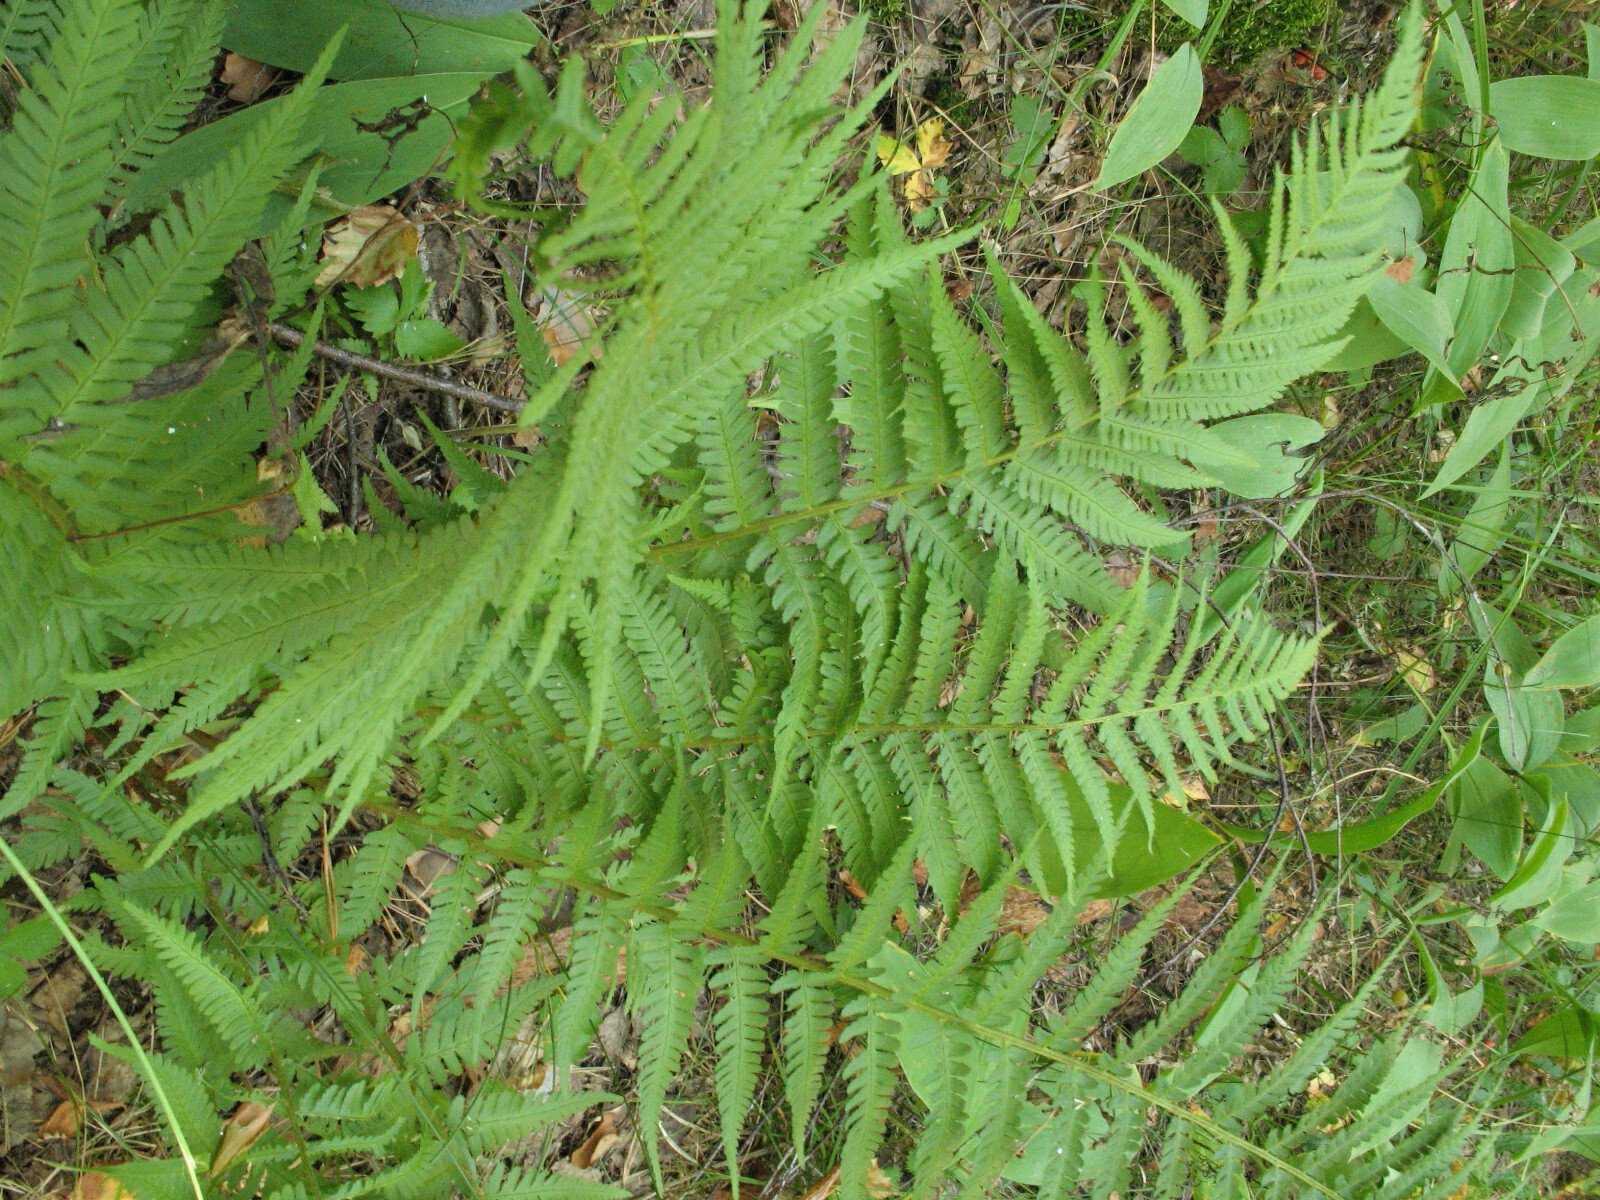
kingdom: Plantae
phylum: Tracheophyta
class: Polypodiopsida
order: Polypodiales
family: Dryopteridaceae
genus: Dryopteris
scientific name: Dryopteris filix-mas
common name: Male fern
